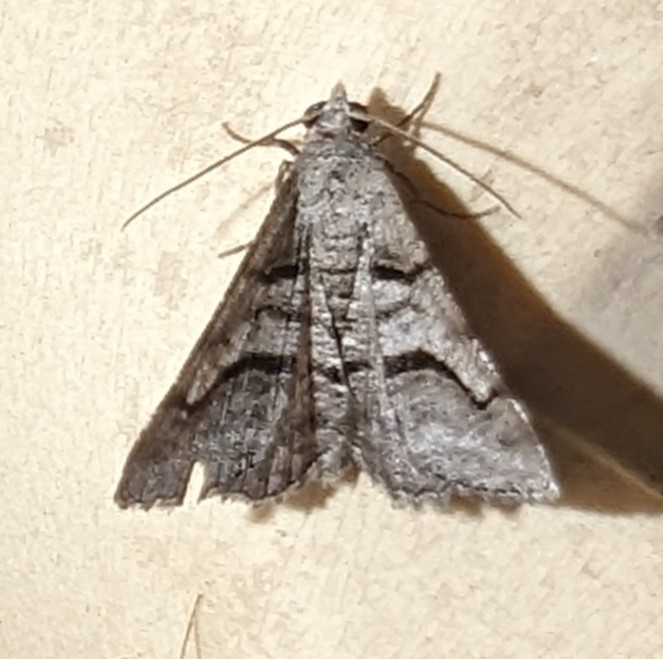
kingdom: Animalia
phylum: Arthropoda
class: Insecta
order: Lepidoptera
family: Geometridae
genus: Digrammia
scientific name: Digrammia continuata
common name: Curve-lined angle
